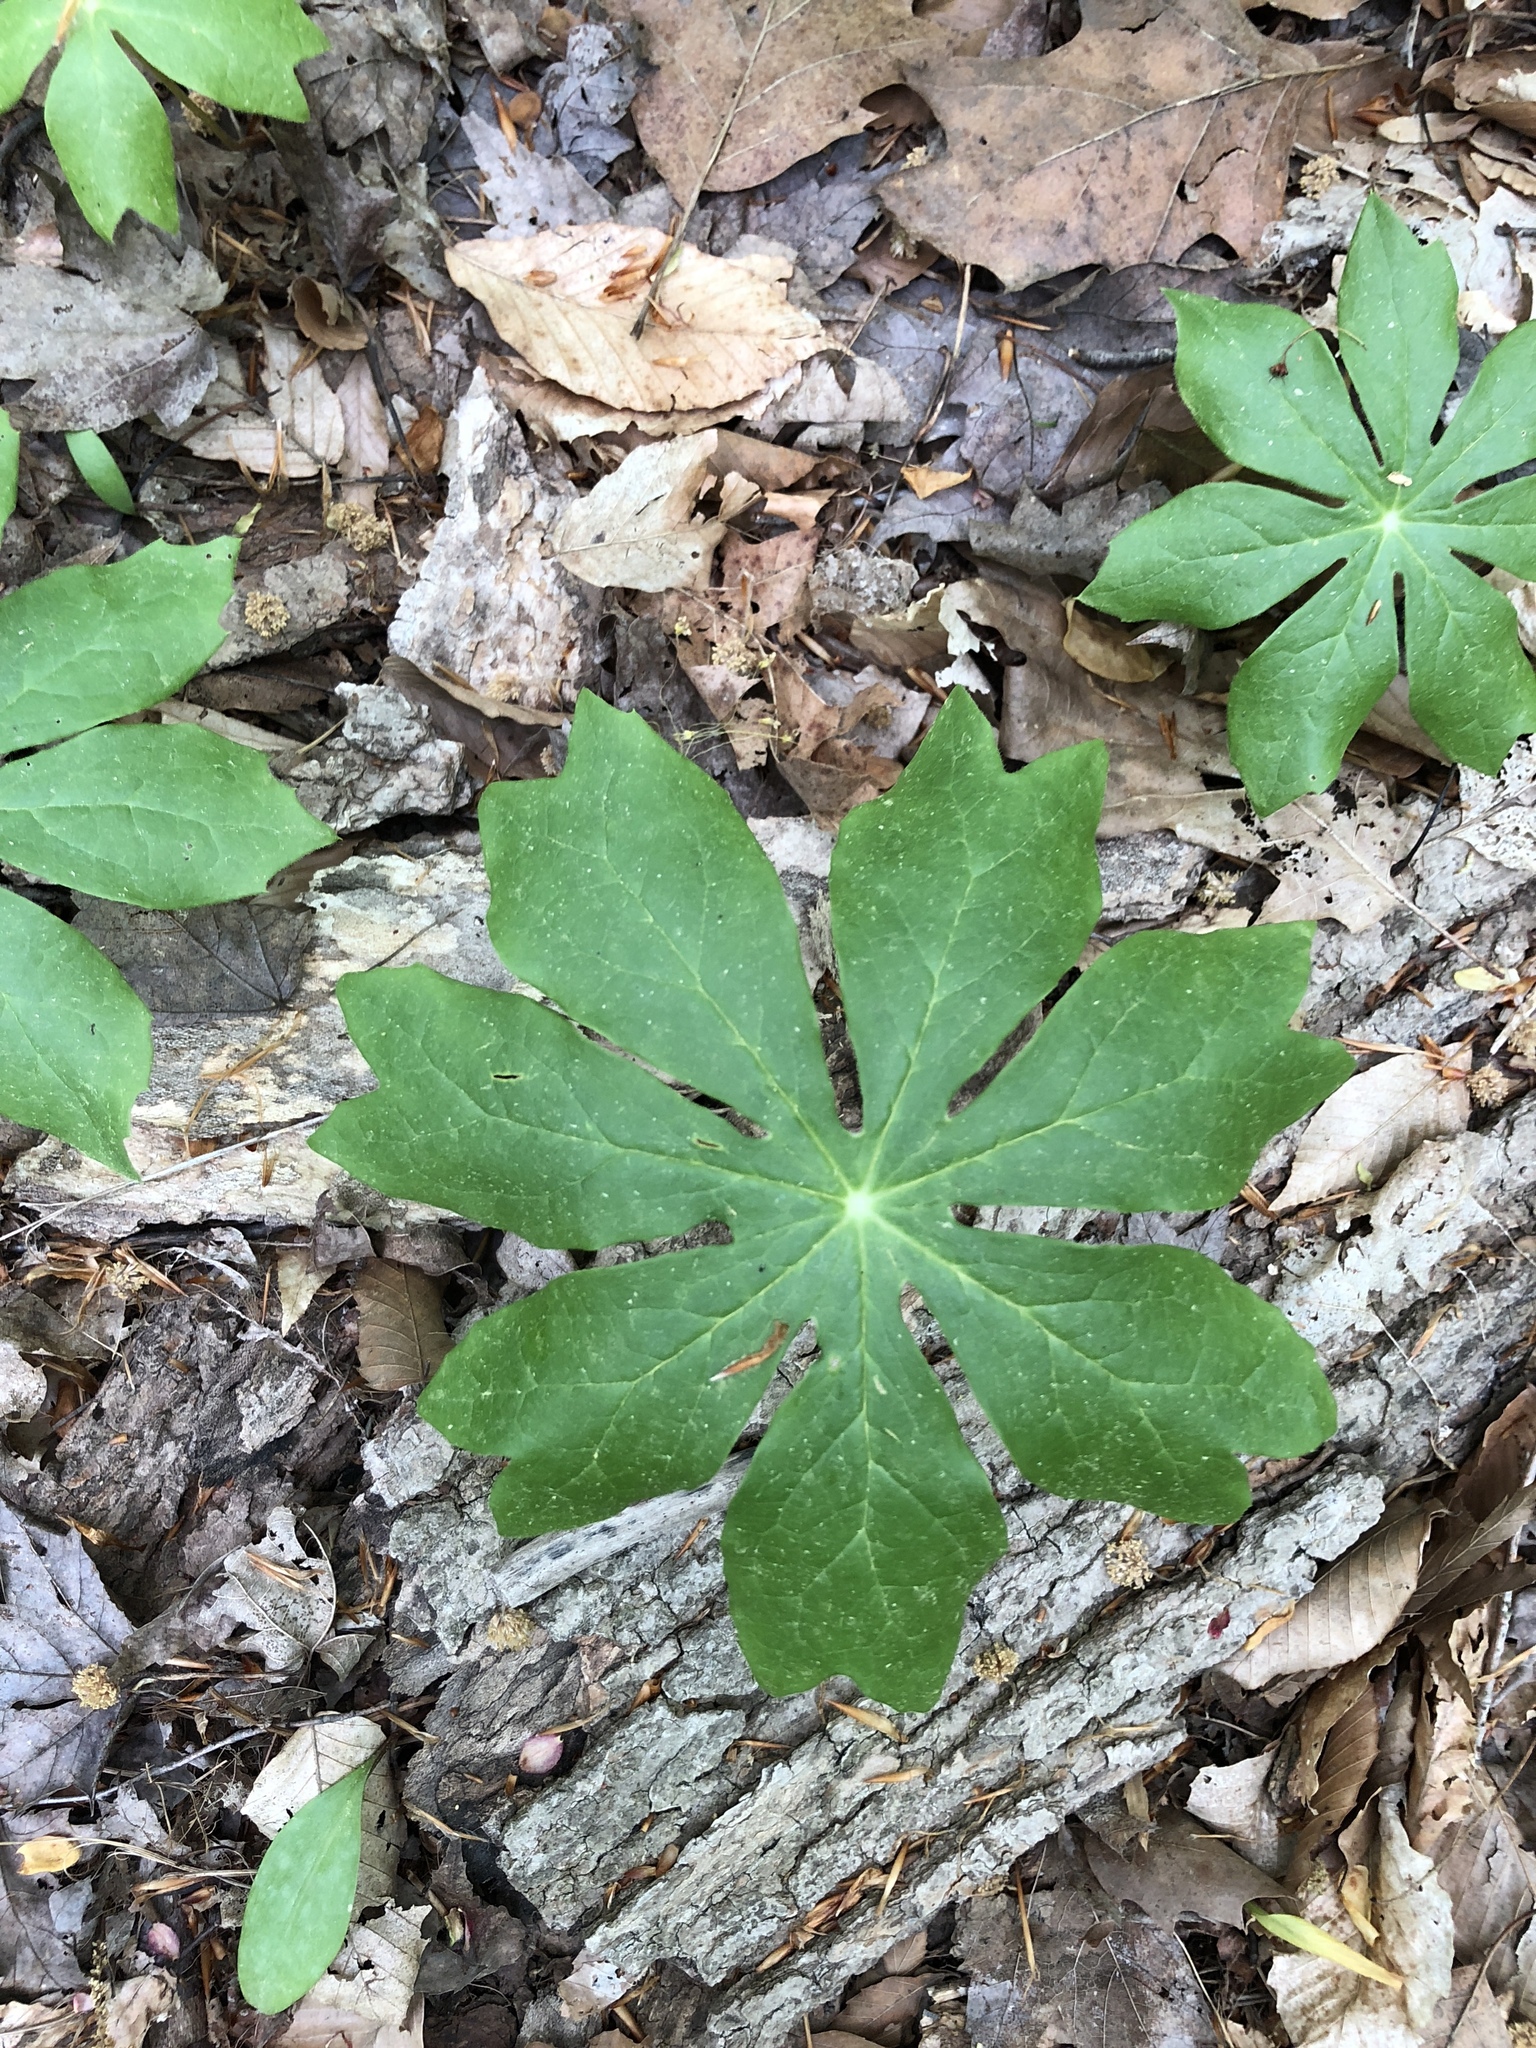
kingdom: Plantae
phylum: Tracheophyta
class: Magnoliopsida
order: Ranunculales
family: Berberidaceae
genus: Podophyllum
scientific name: Podophyllum peltatum
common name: Wild mandrake
